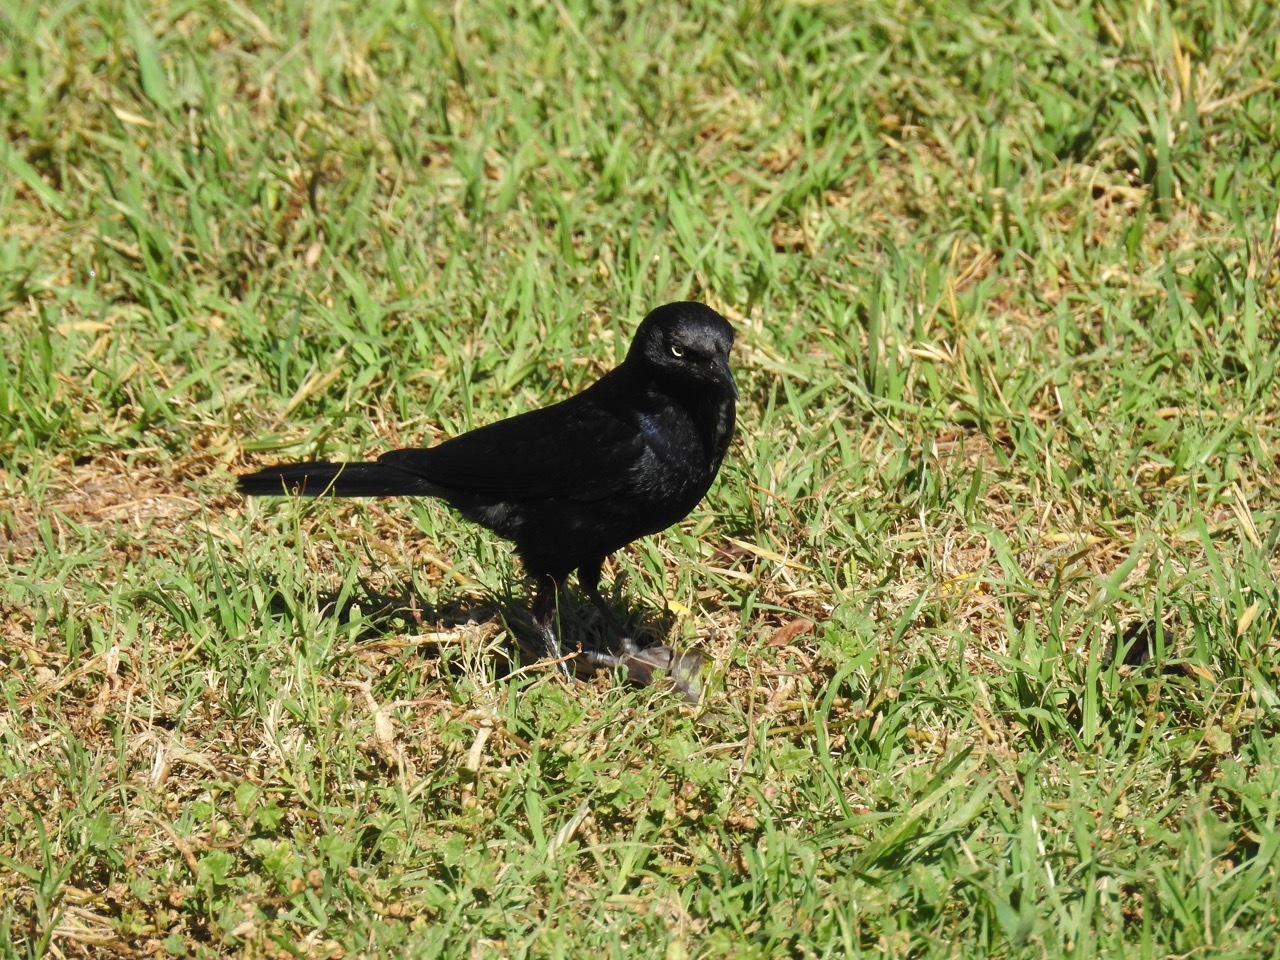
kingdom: Animalia
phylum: Chordata
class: Aves
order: Passeriformes
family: Icteridae
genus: Euphagus
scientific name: Euphagus cyanocephalus
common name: Brewer's blackbird
